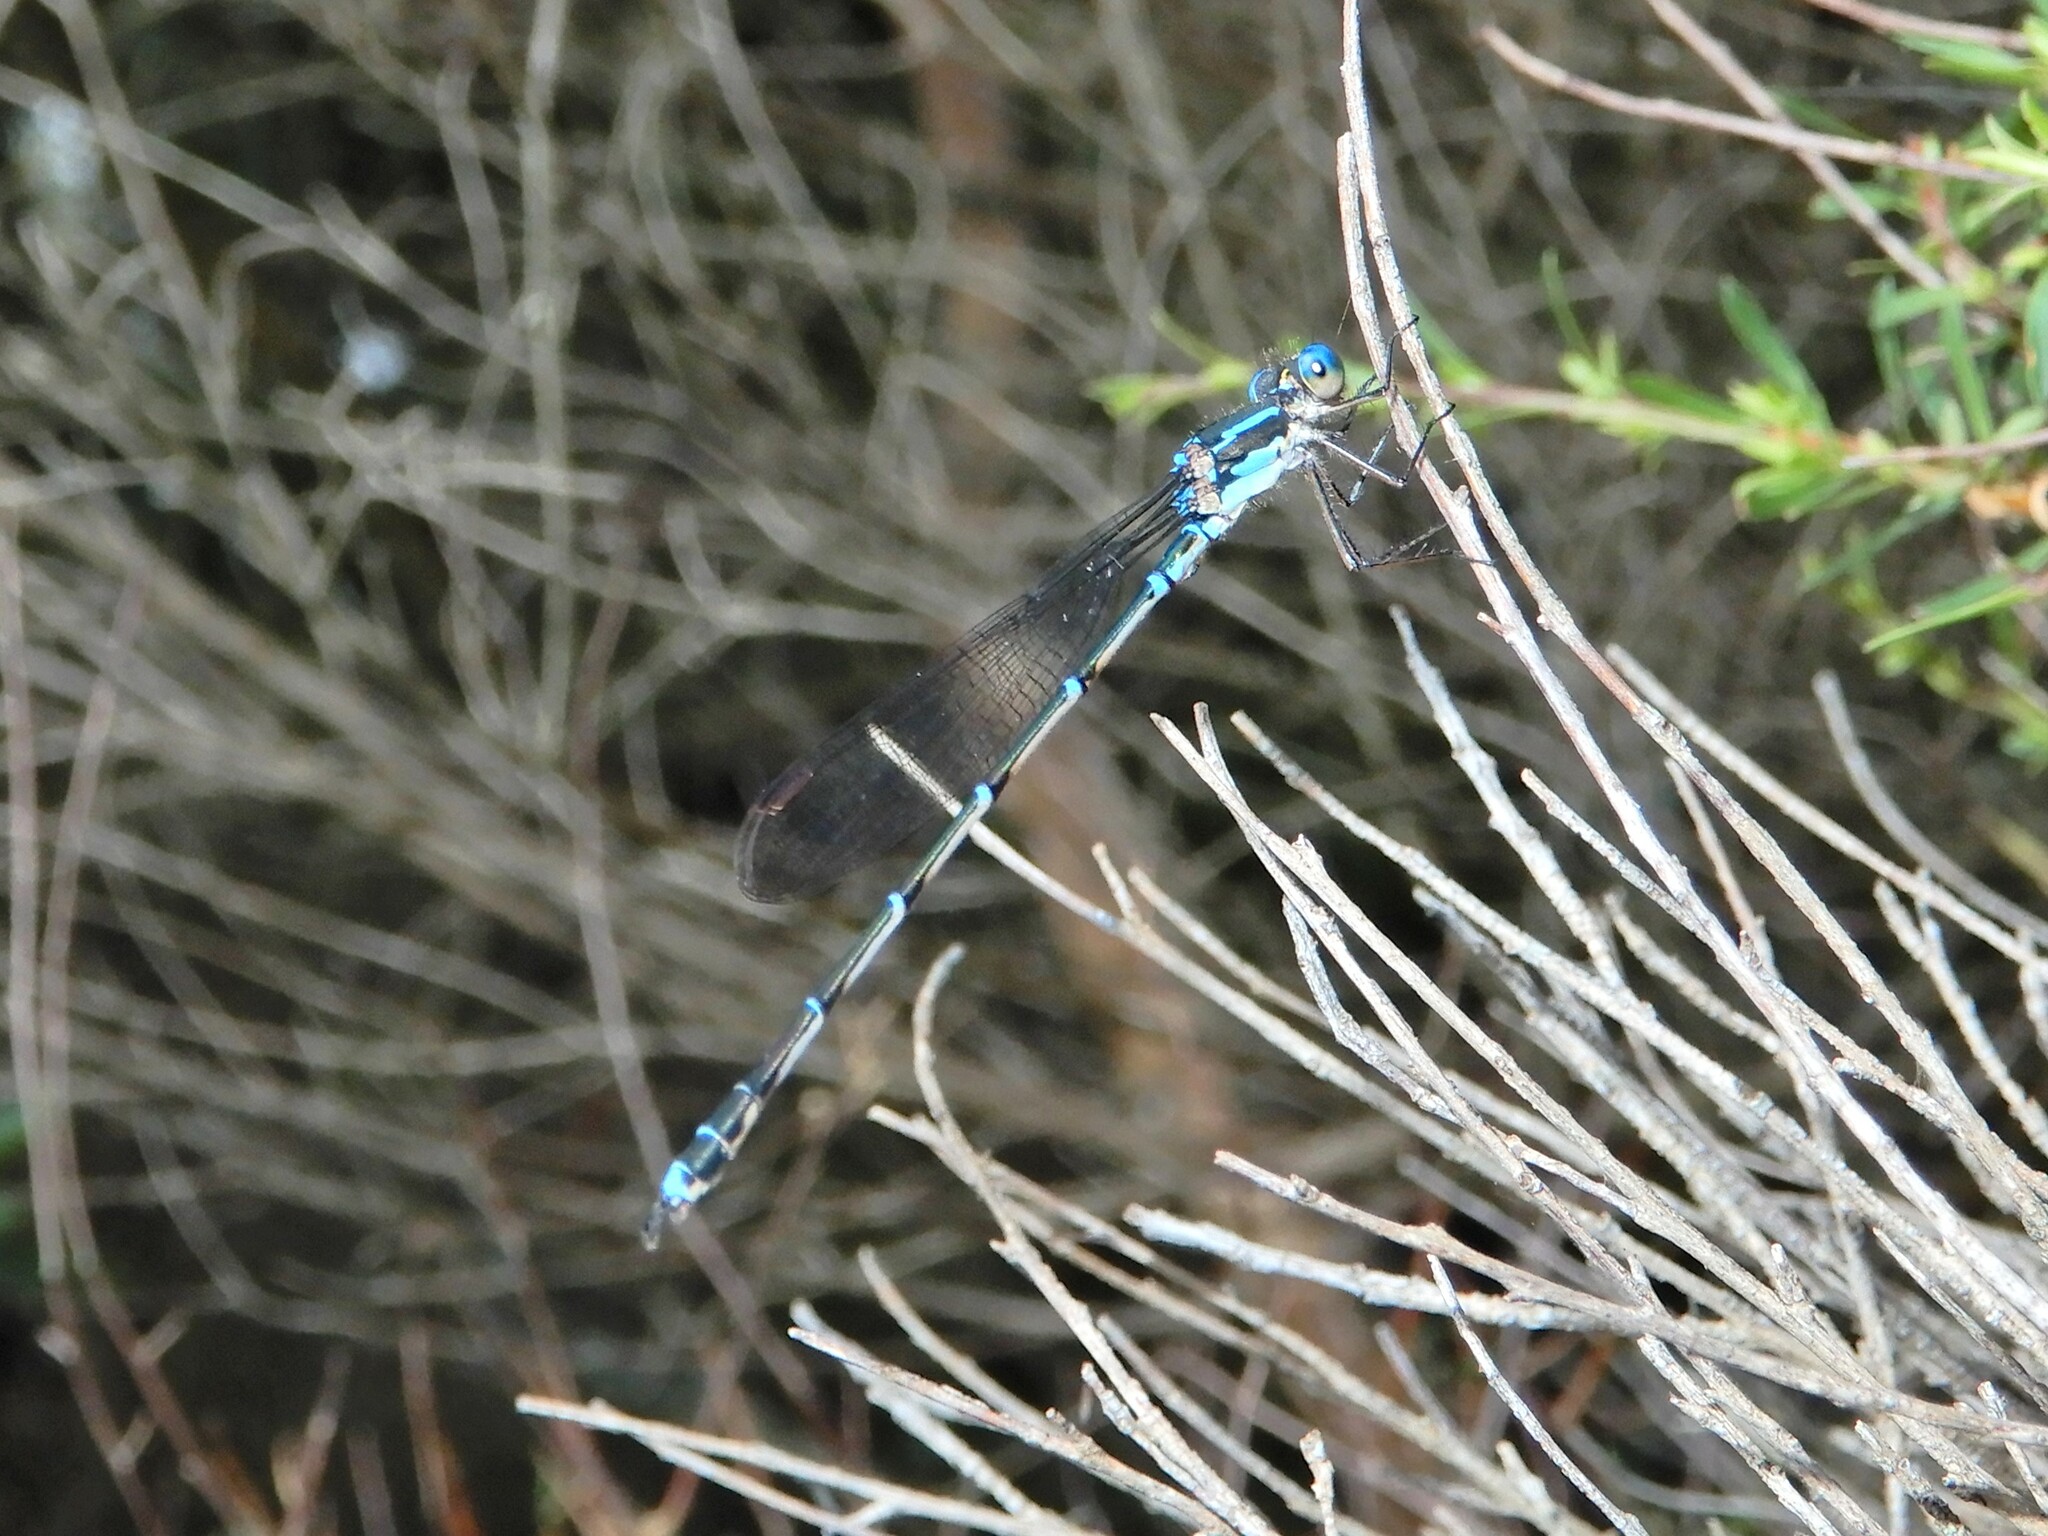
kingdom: Animalia
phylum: Arthropoda
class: Insecta
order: Odonata
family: Lestidae
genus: Austrolestes
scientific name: Austrolestes colensonis
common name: Blue damselfly
